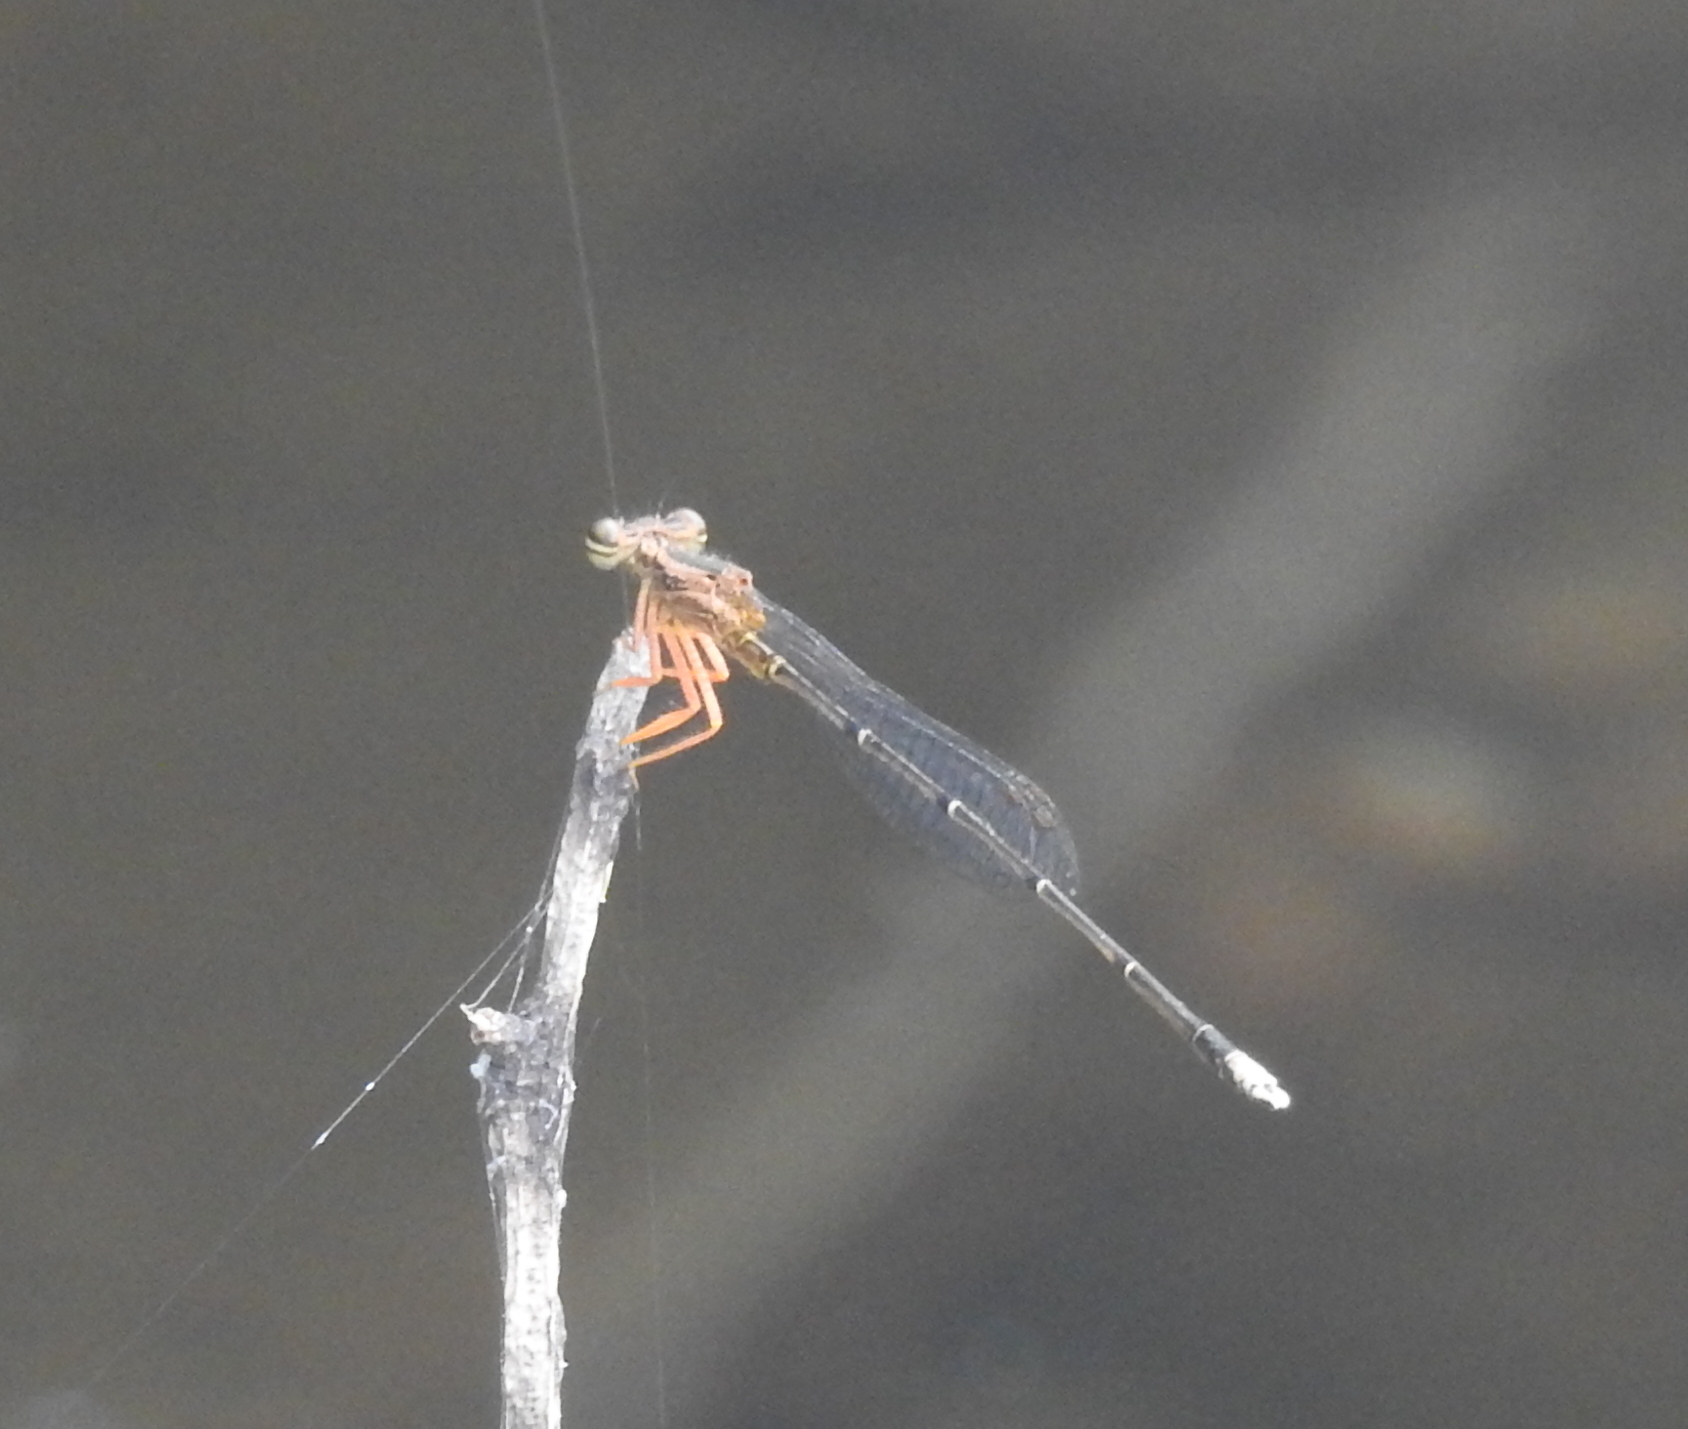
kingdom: Animalia
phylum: Arthropoda
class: Insecta
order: Odonata
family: Platycnemididae
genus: Copera
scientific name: Copera marginipes
